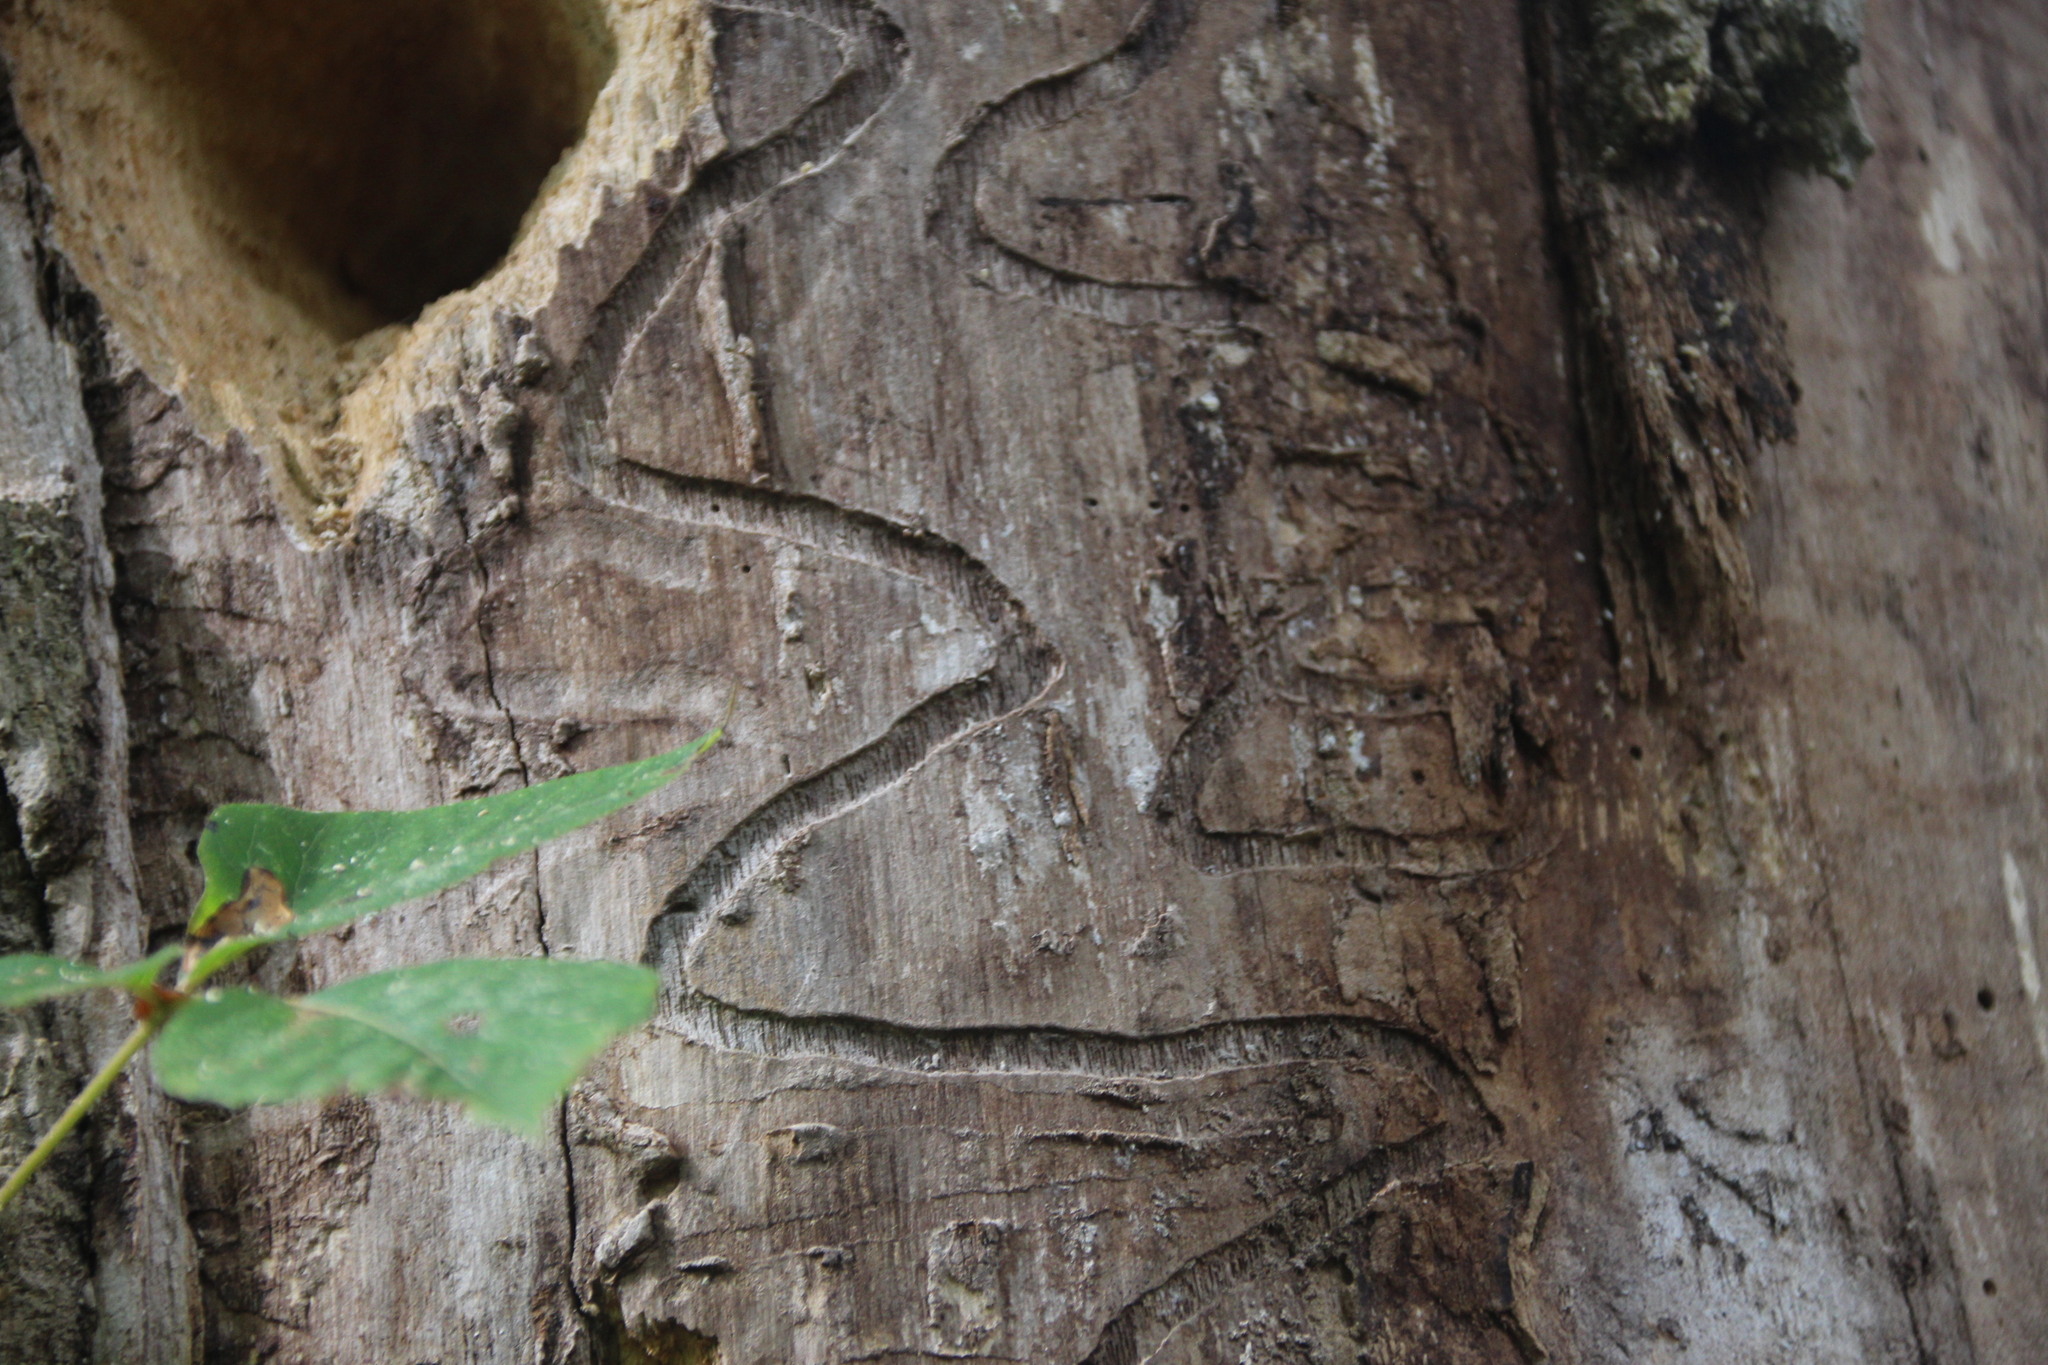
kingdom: Animalia
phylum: Arthropoda
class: Insecta
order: Coleoptera
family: Buprestidae
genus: Agrilus
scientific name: Agrilus planipennis
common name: Emerald ash borer
